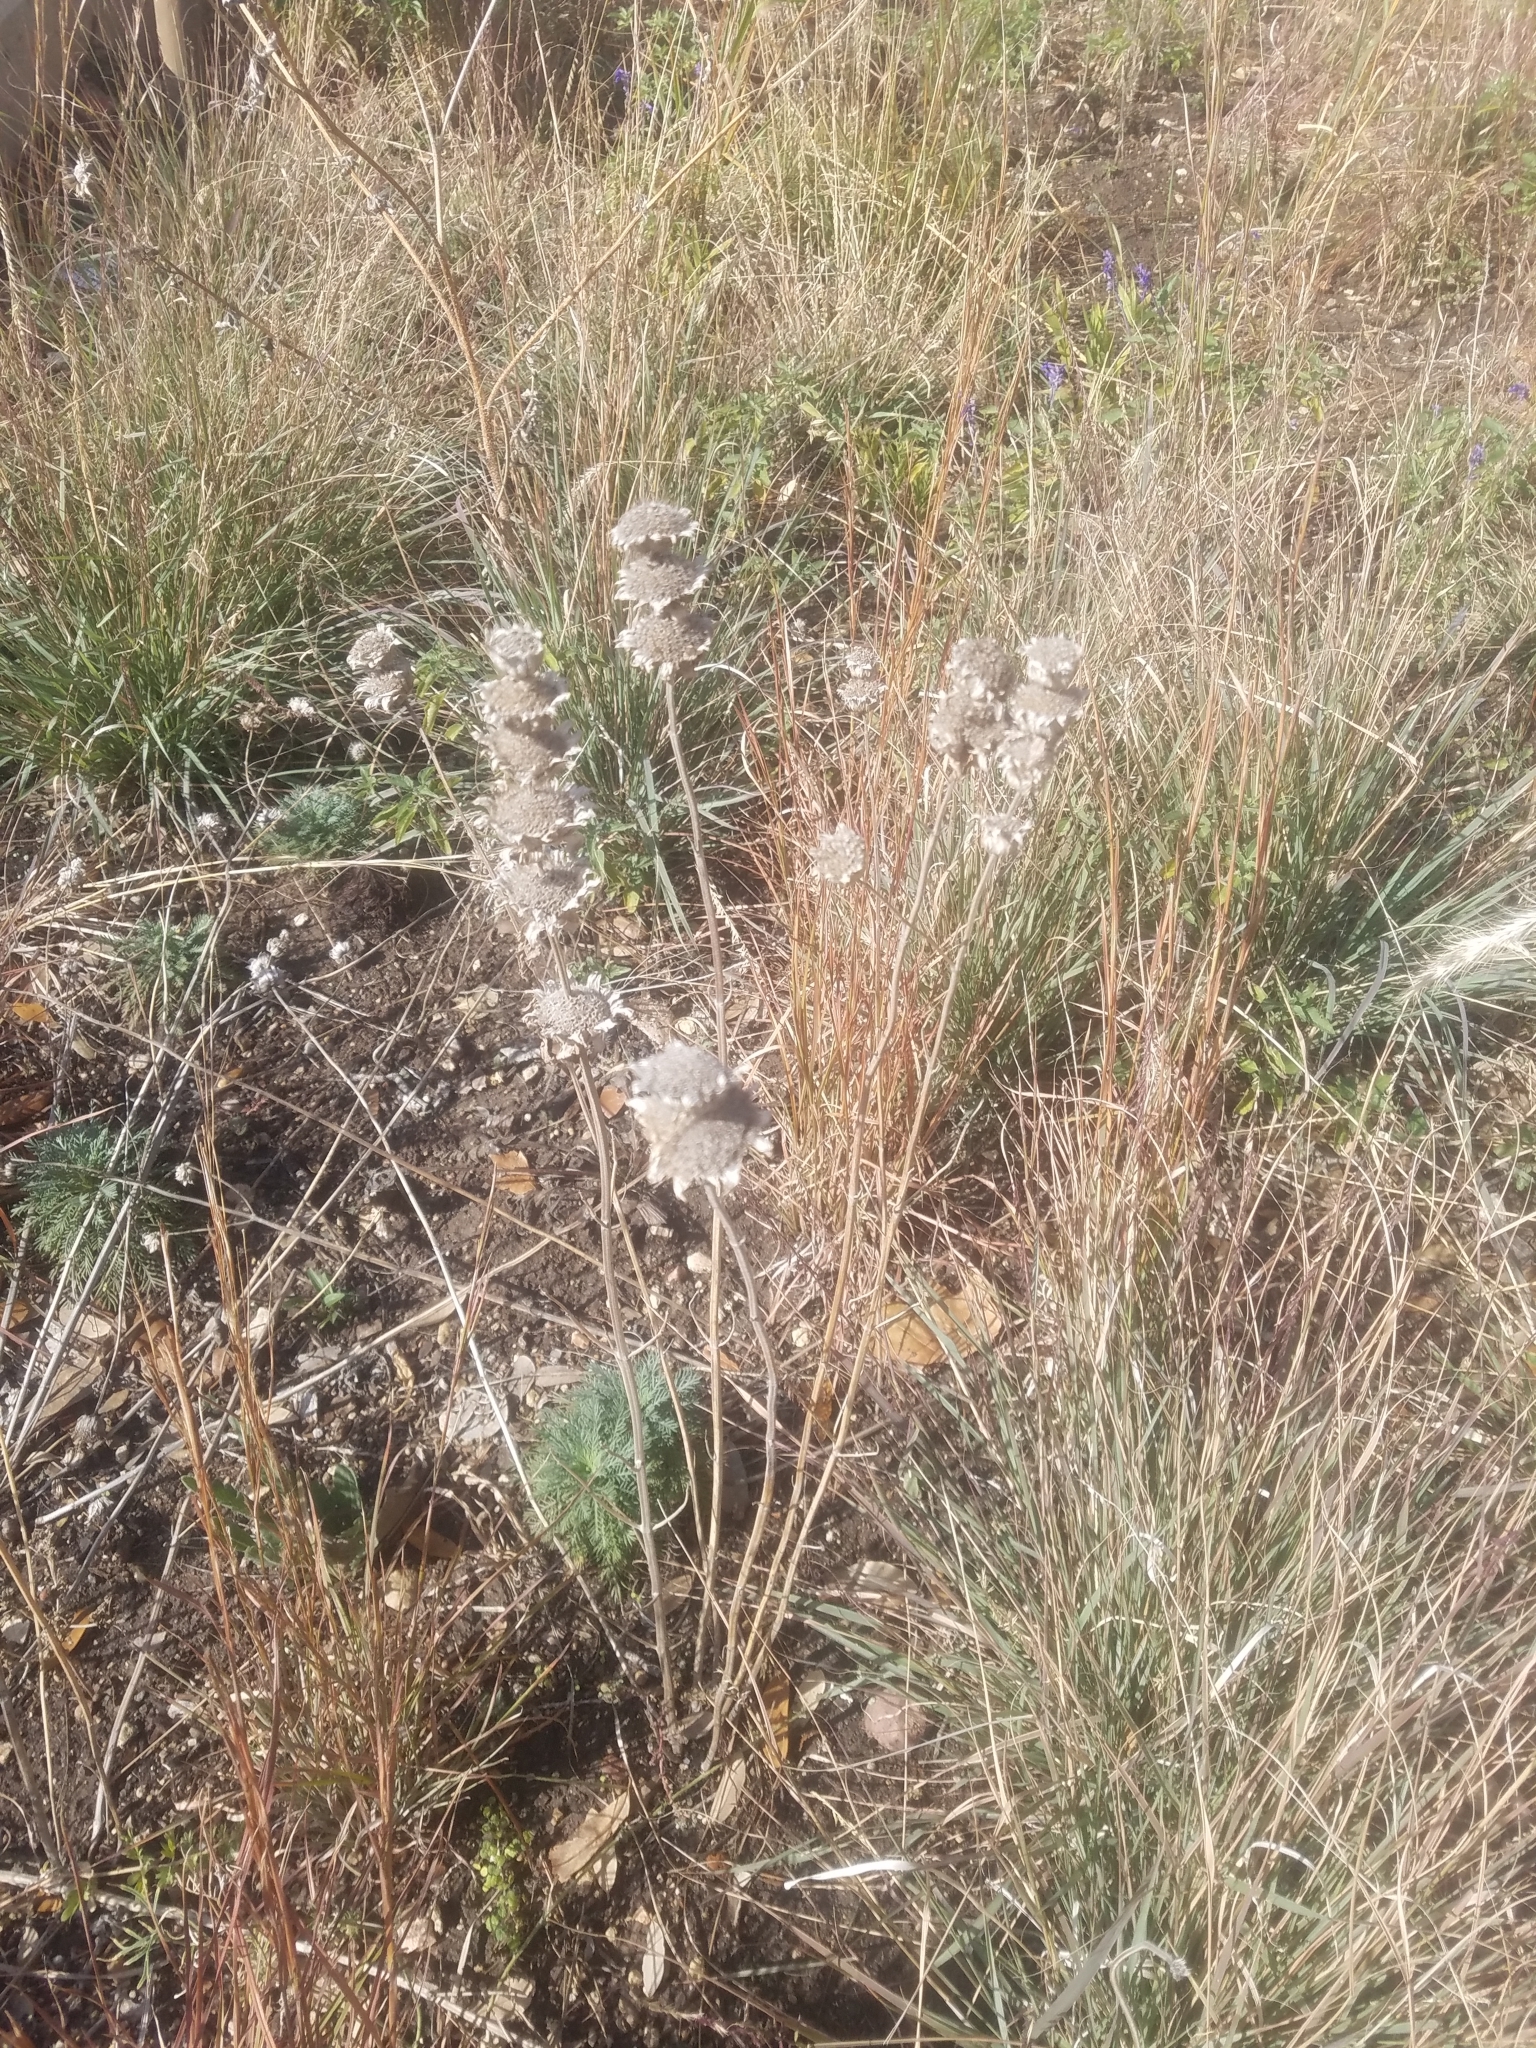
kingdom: Plantae
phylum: Tracheophyta
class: Magnoliopsida
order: Lamiales
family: Lamiaceae
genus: Monarda
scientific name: Monarda citriodora
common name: Lemon beebalm
